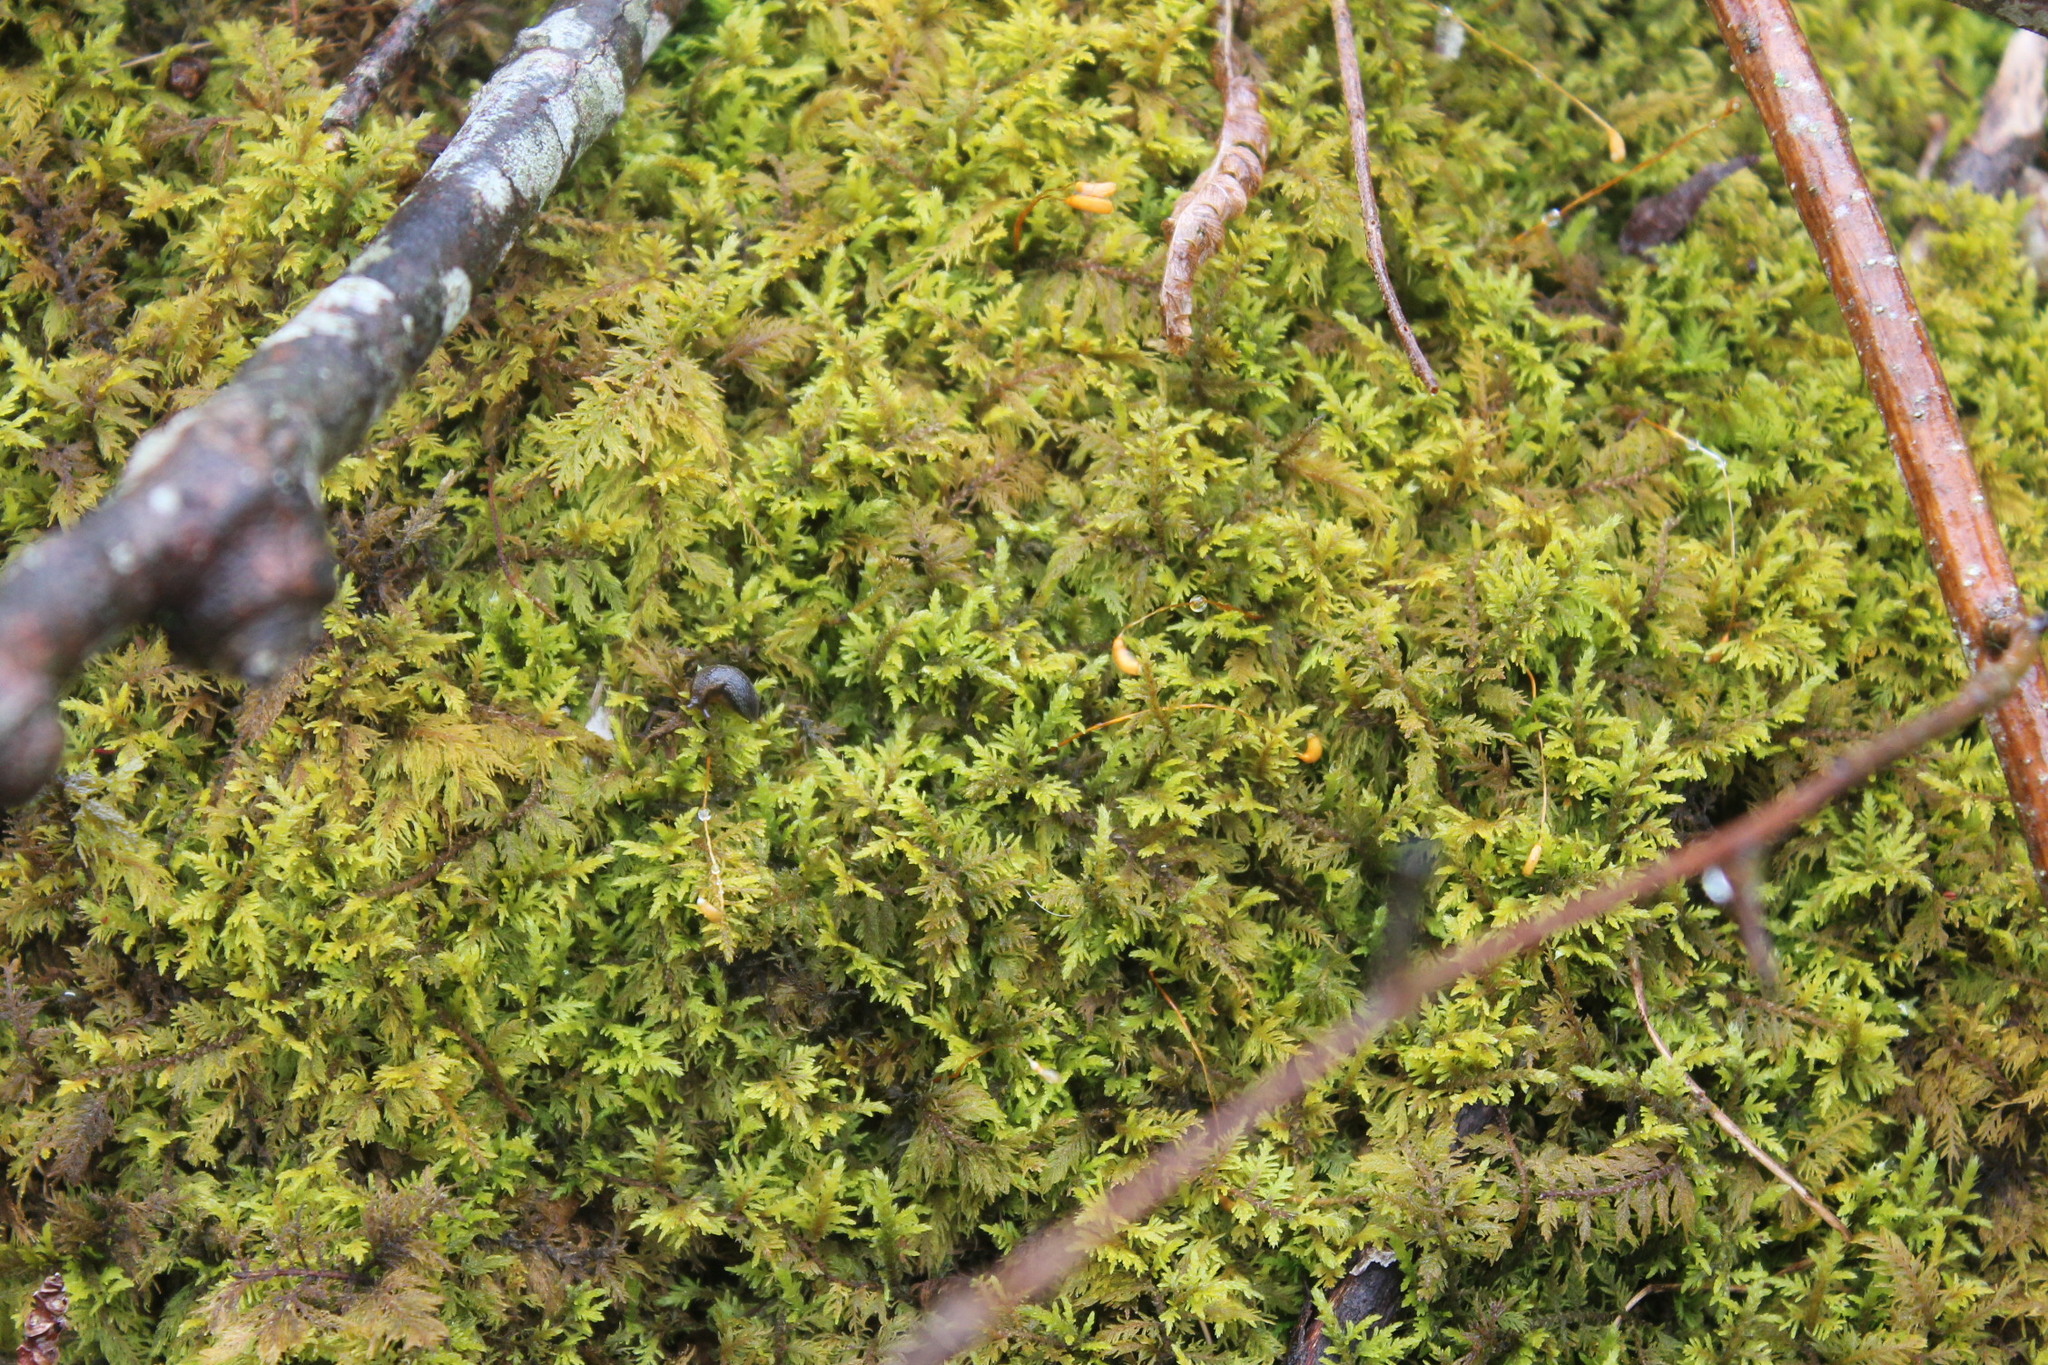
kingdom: Plantae
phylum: Bryophyta
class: Bryopsida
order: Hypnales
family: Thuidiaceae
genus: Thuidium
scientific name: Thuidium delicatulum
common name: Delicate fern moss
